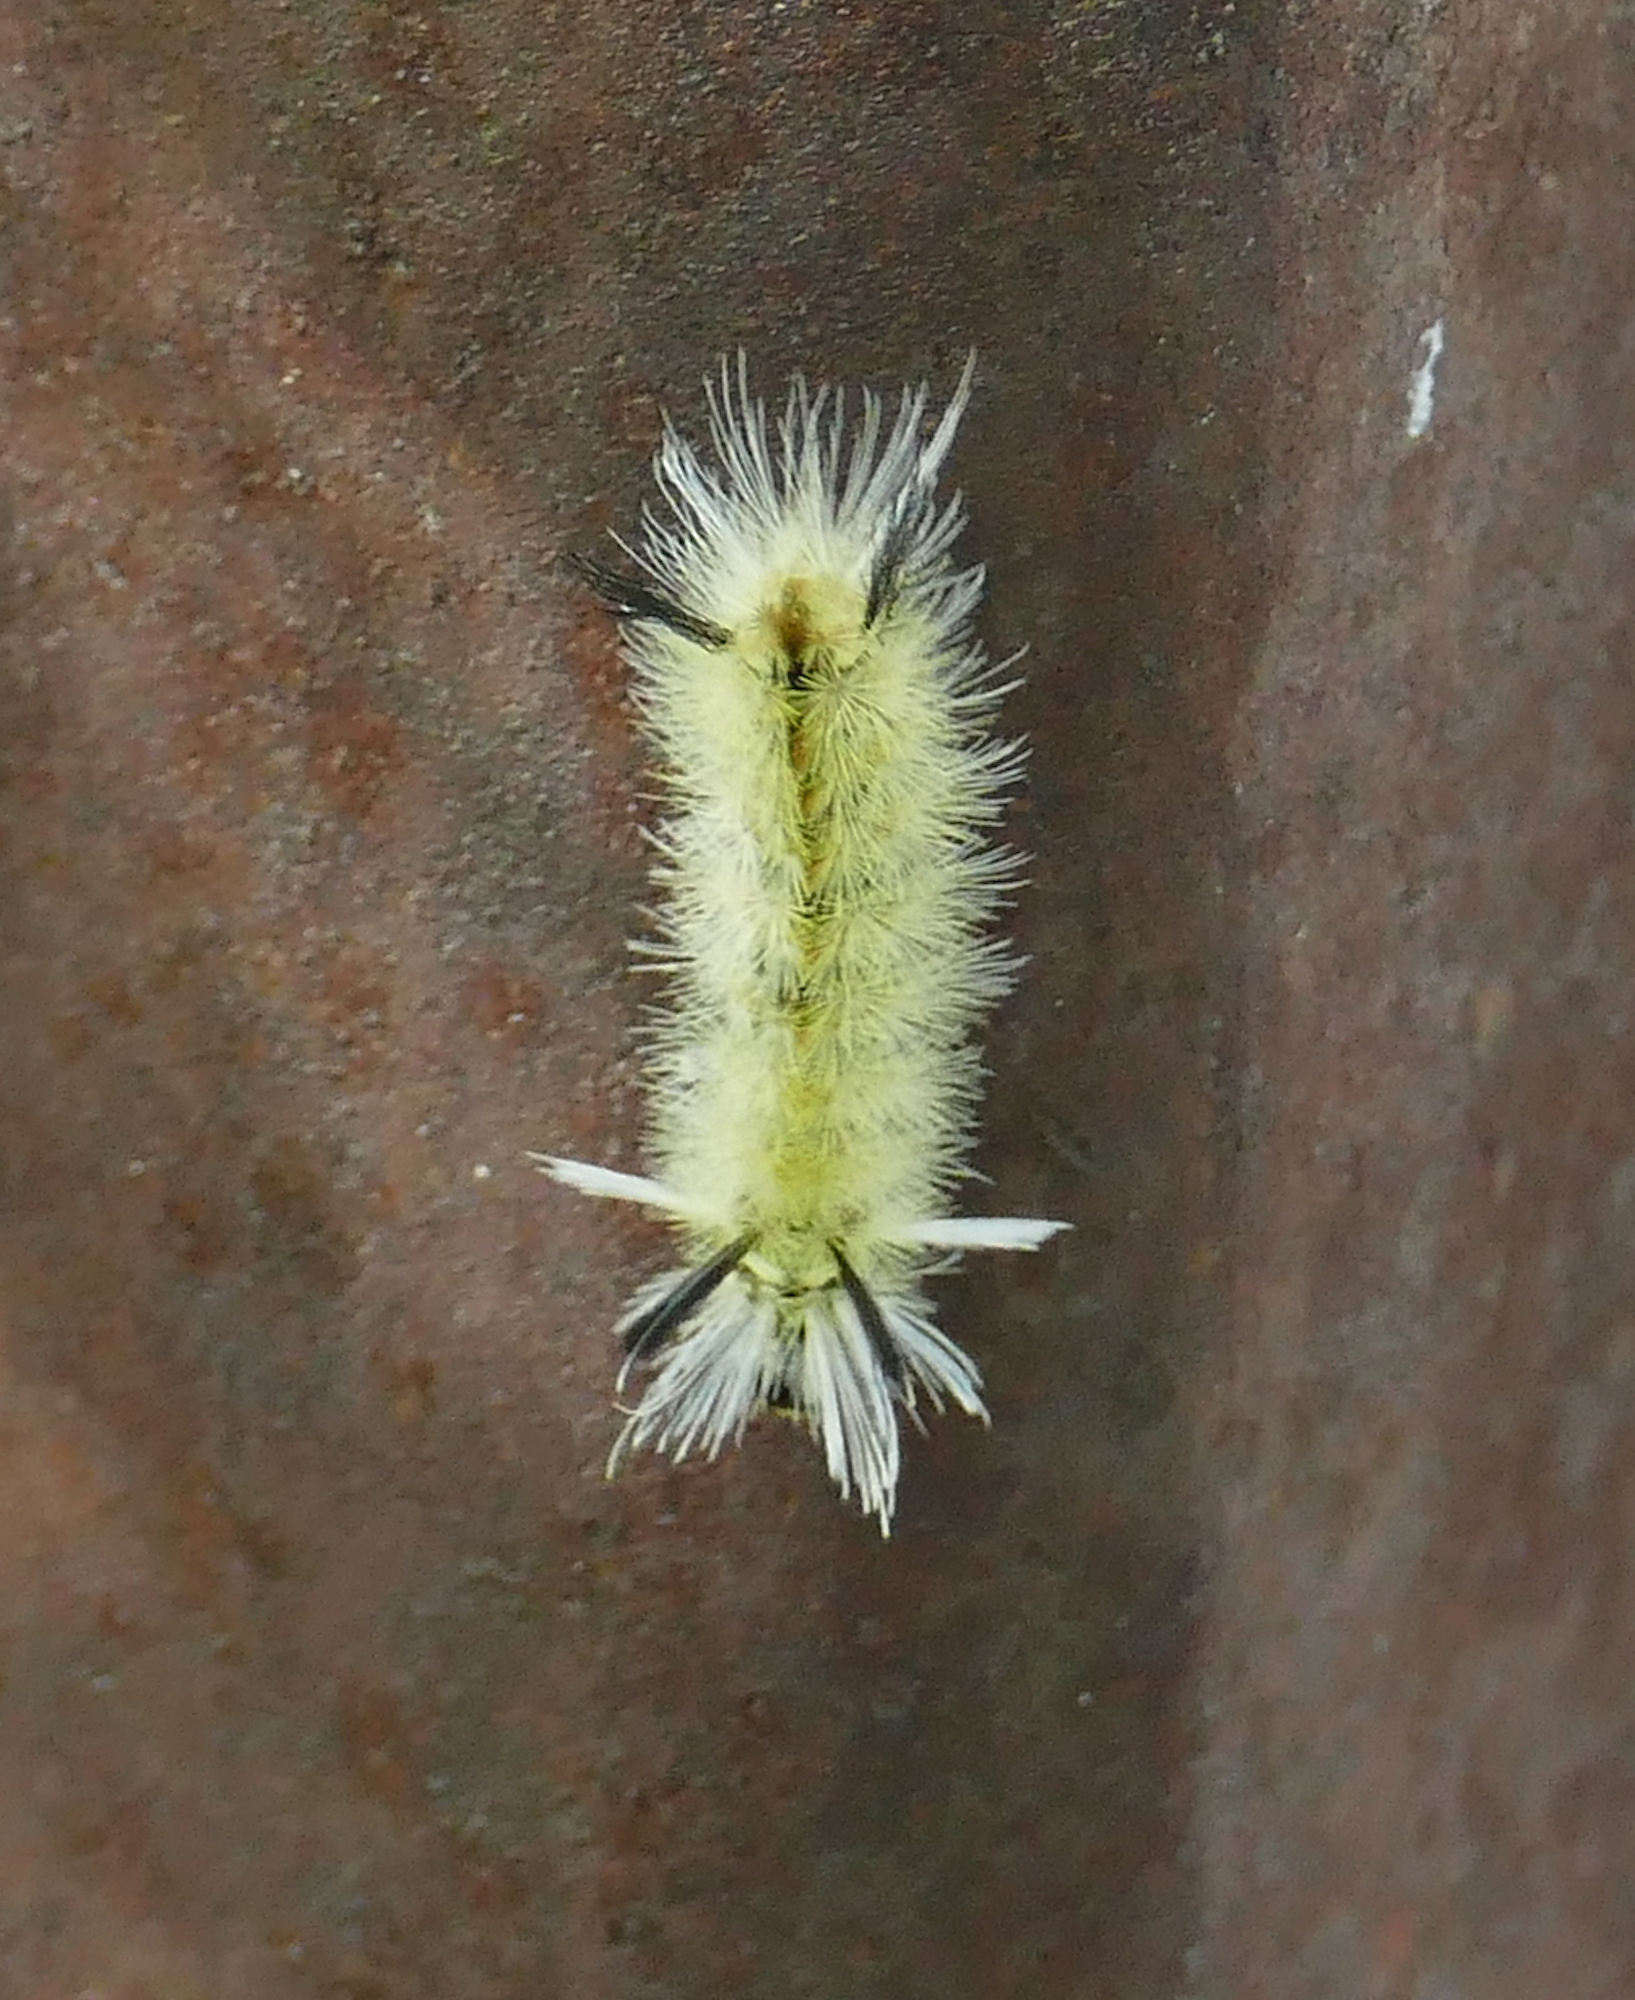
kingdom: Animalia
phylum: Arthropoda
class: Insecta
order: Lepidoptera
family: Erebidae
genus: Halysidota
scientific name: Halysidota tessellaris
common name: Banded tussock moth
